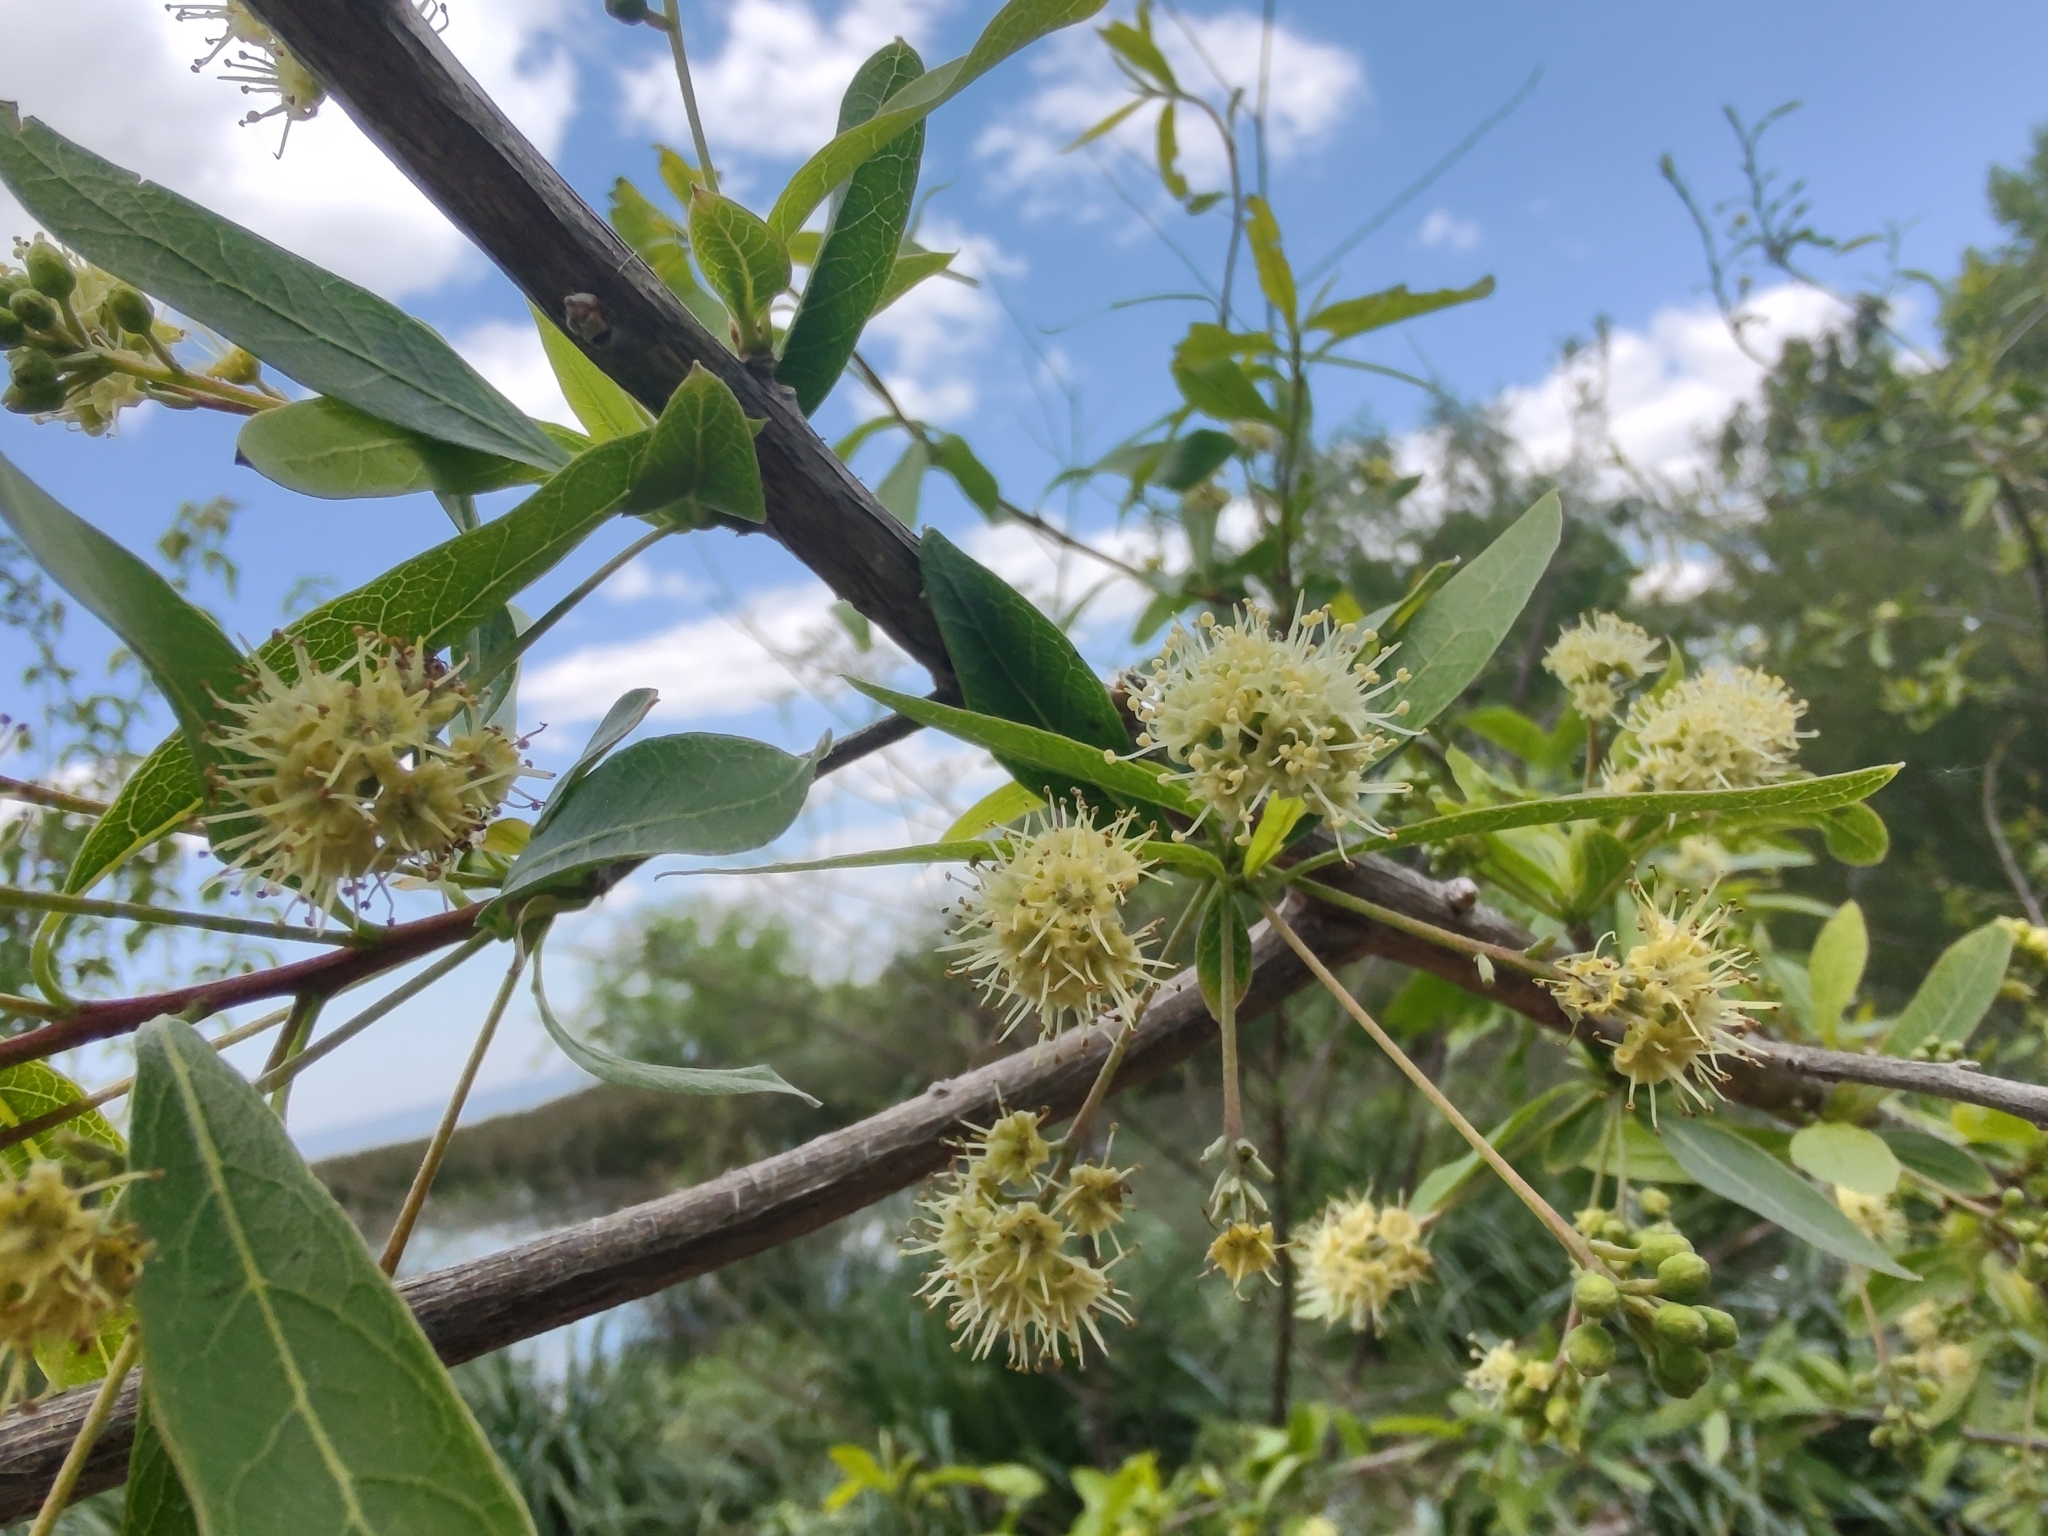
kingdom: Plantae
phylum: Tracheophyta
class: Magnoliopsida
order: Myrtales
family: Combretaceae
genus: Terminalia
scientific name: Terminalia australis
